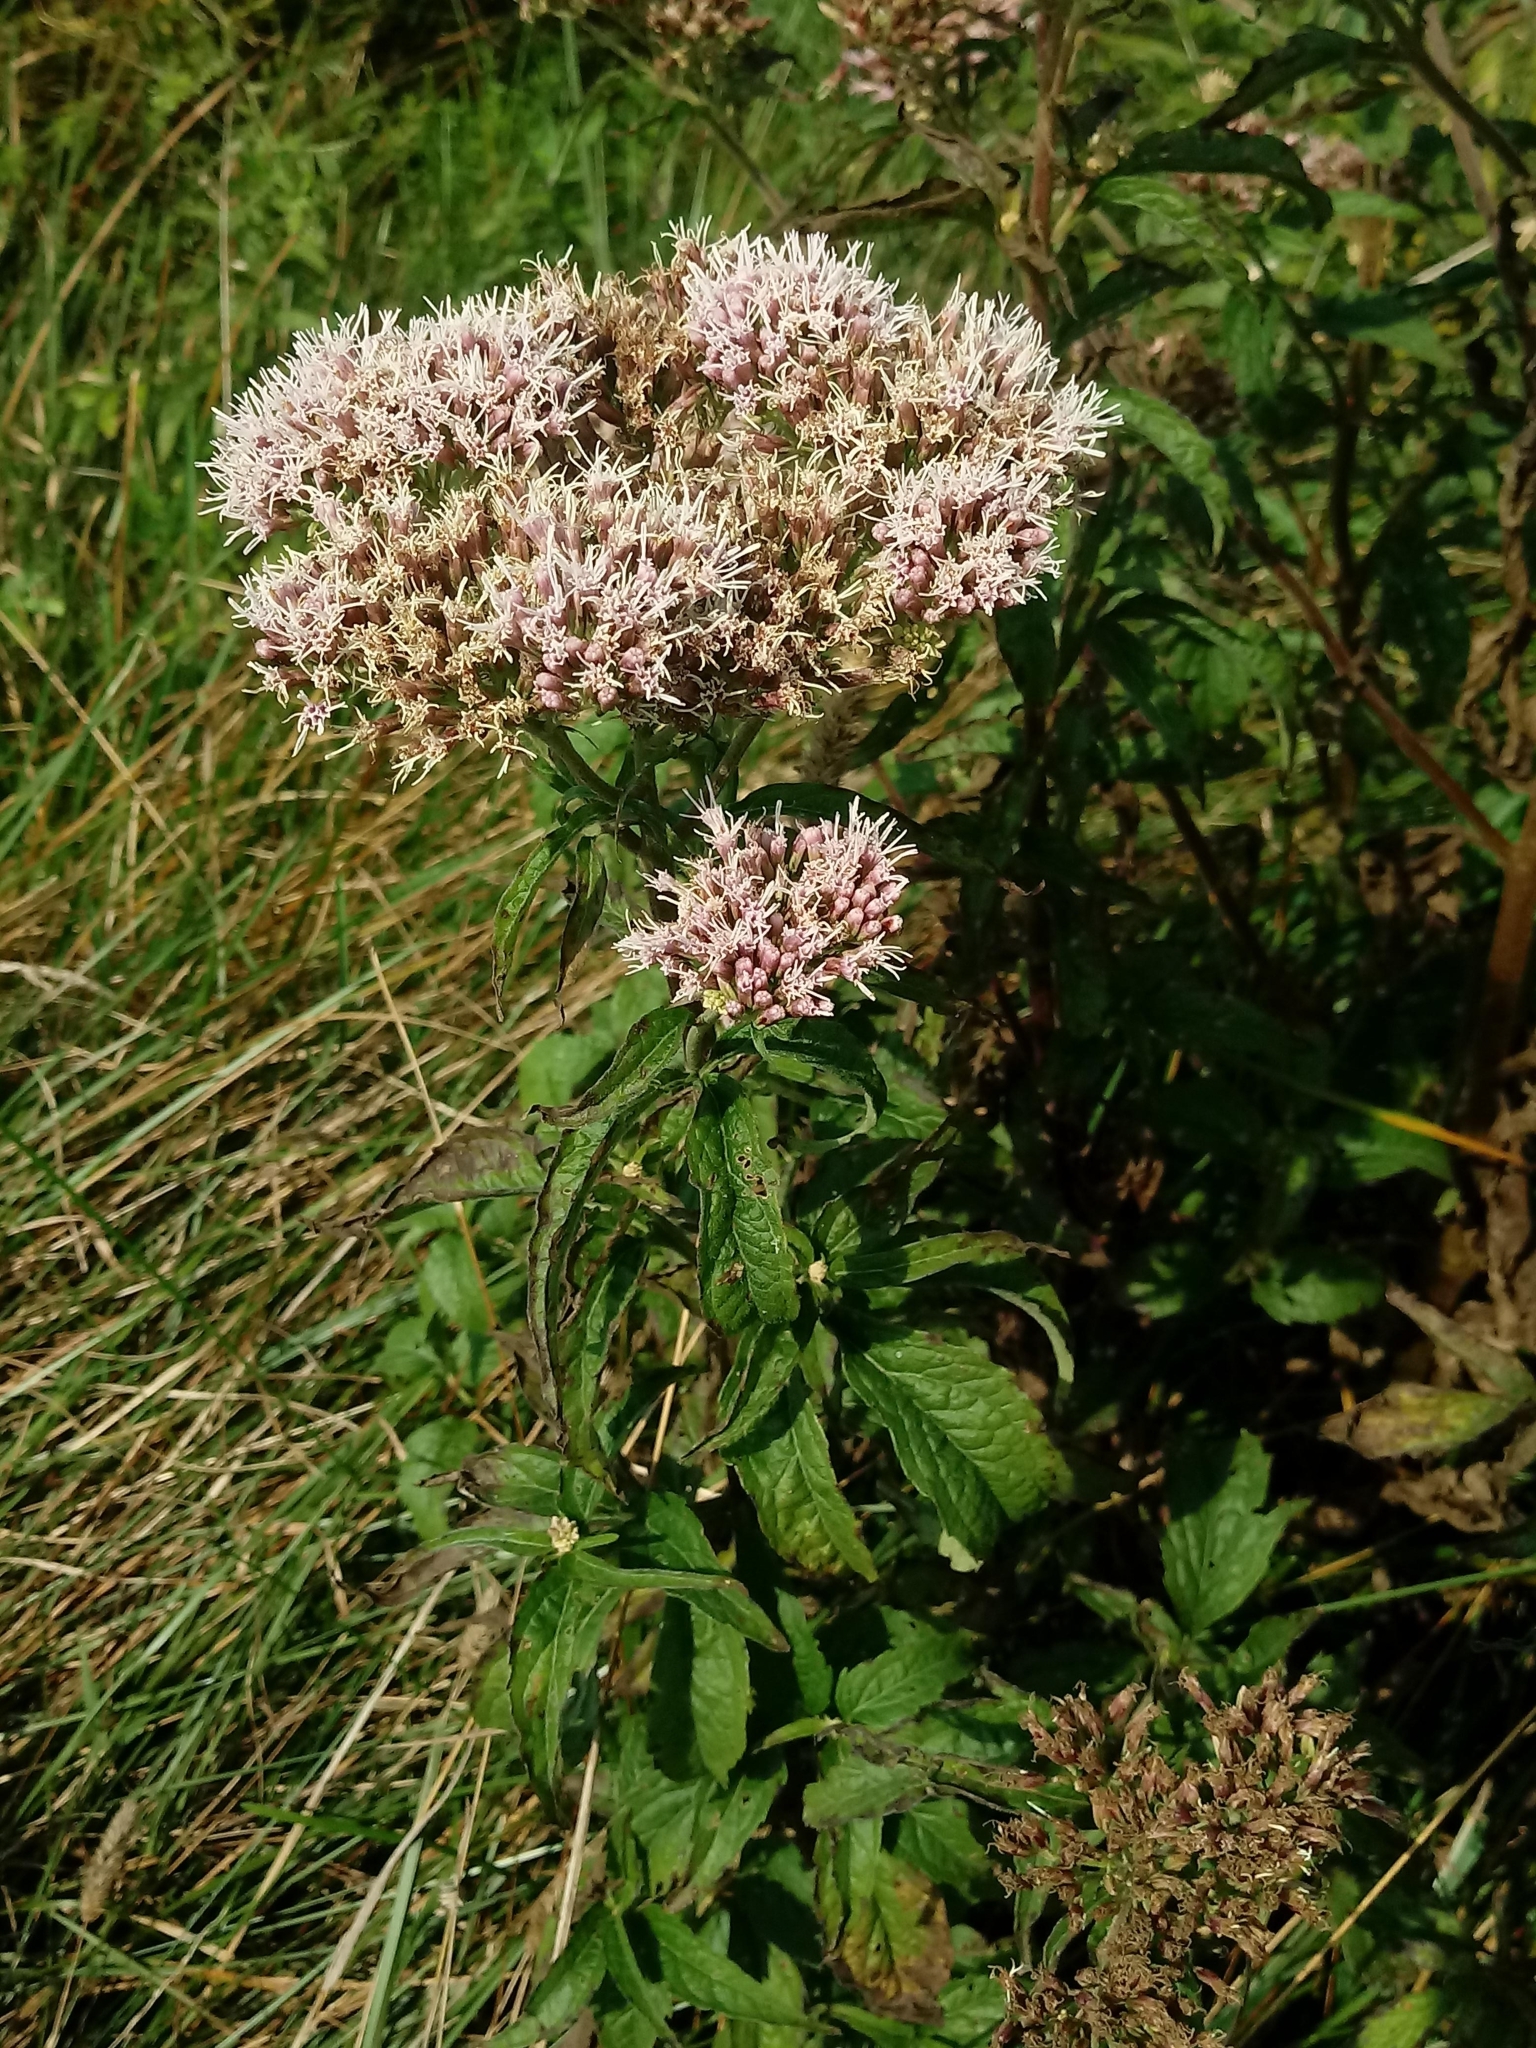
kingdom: Plantae
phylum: Tracheophyta
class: Magnoliopsida
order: Asterales
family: Asteraceae
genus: Eupatorium
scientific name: Eupatorium cannabinum
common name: Hemp-agrimony
